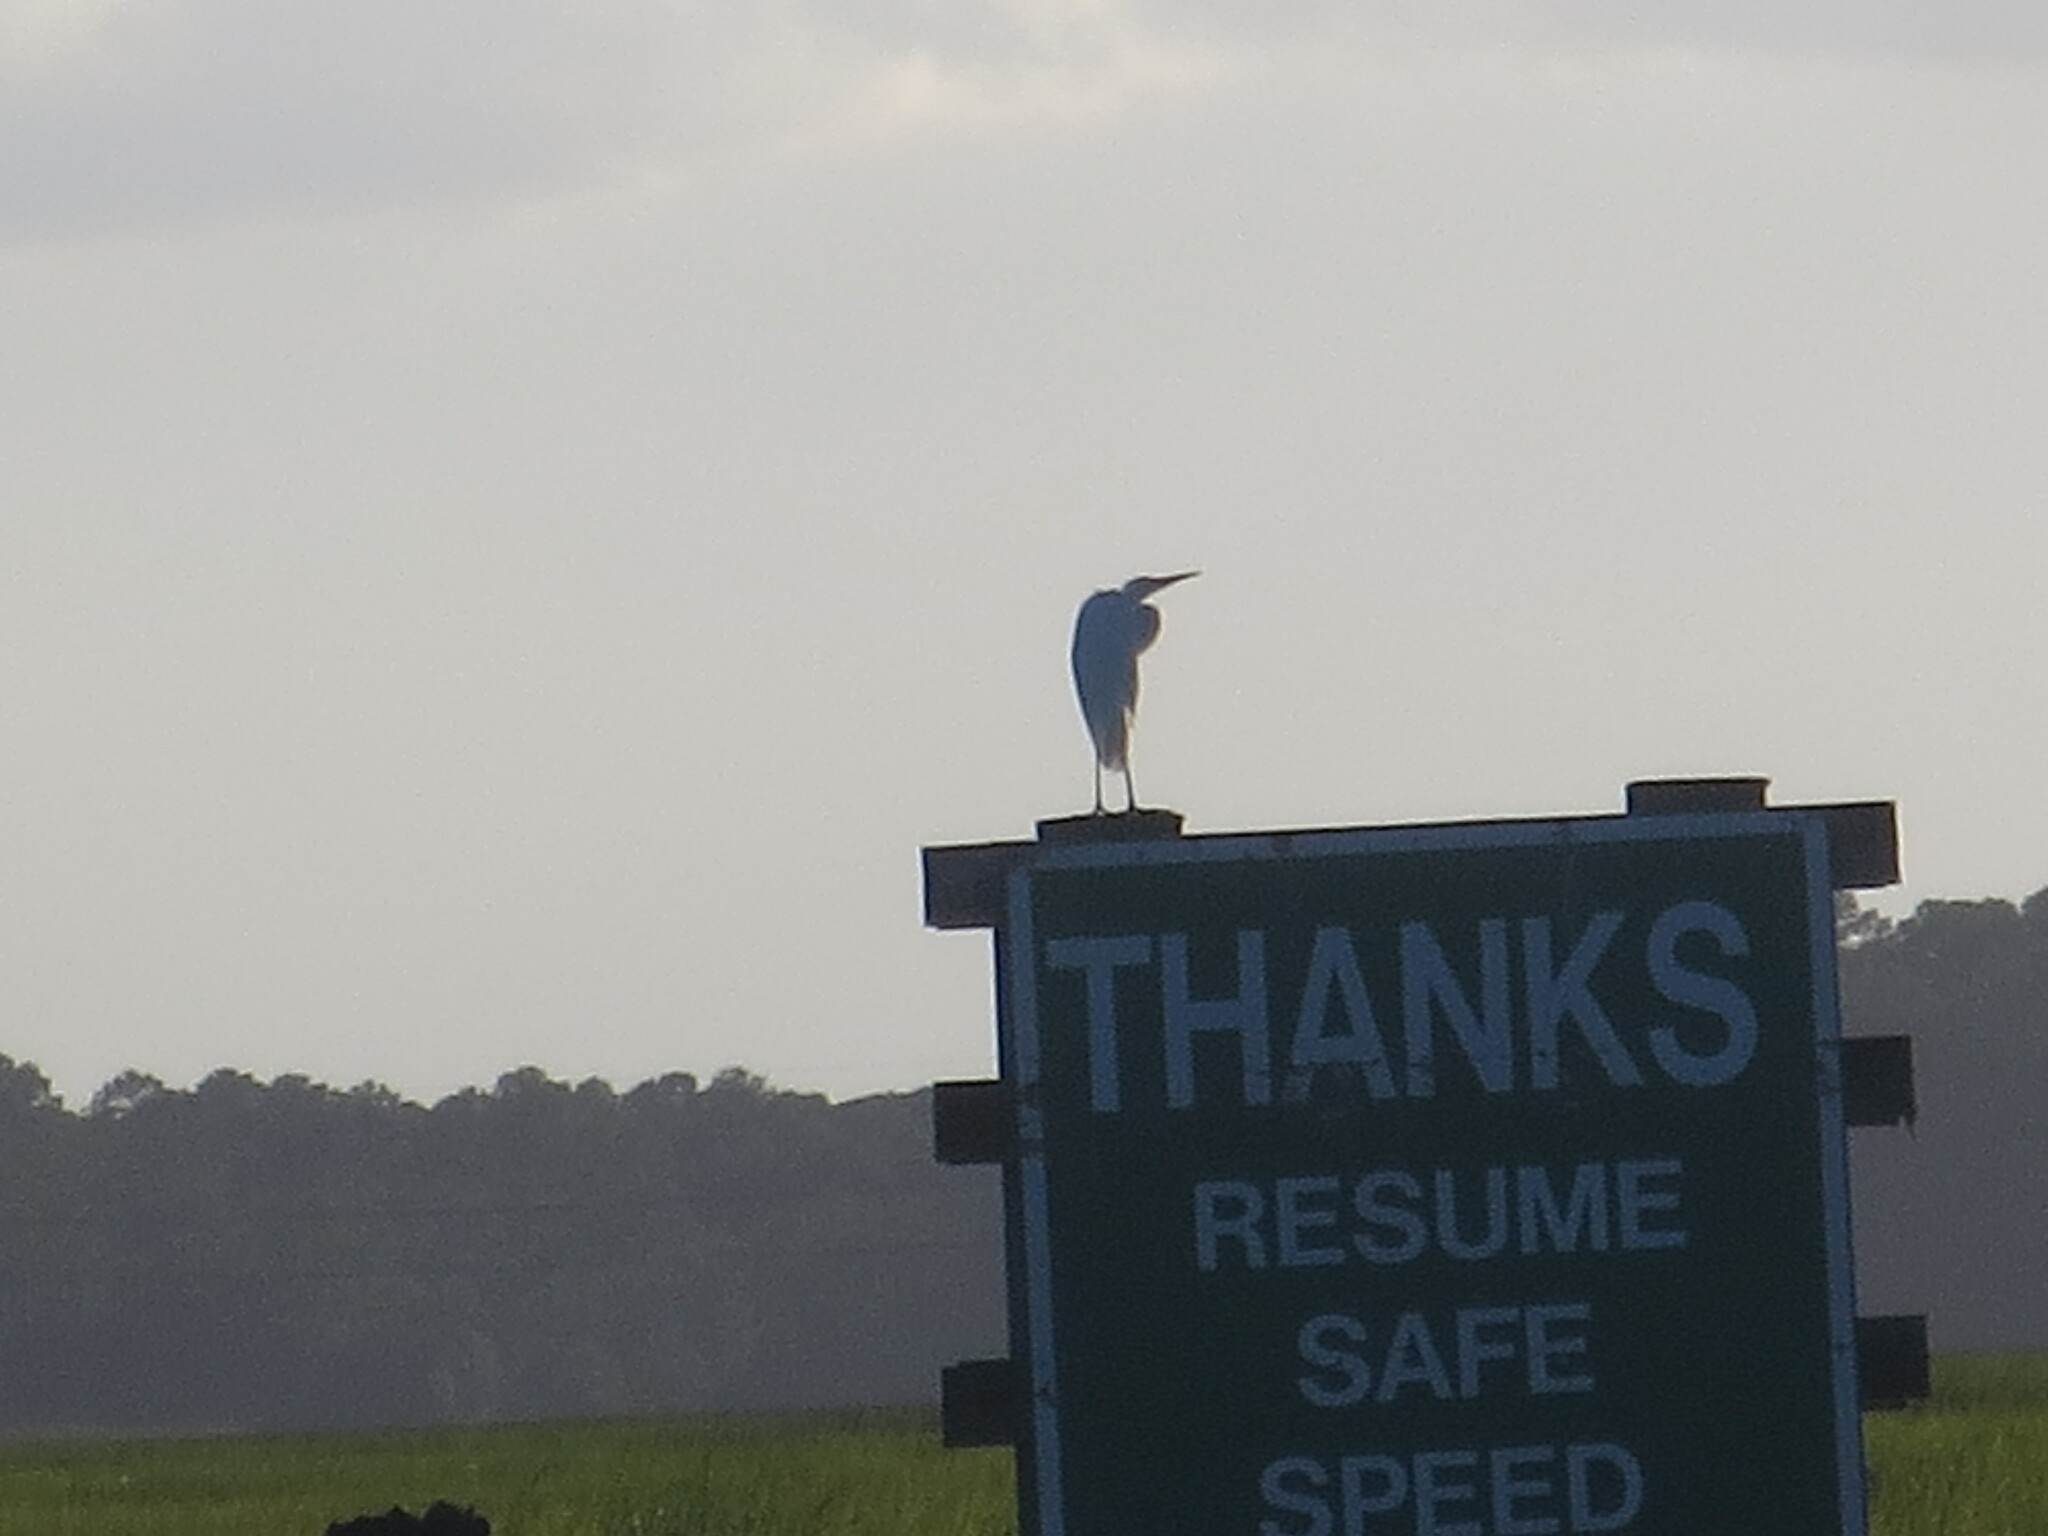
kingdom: Animalia
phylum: Chordata
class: Aves
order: Pelecaniformes
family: Ardeidae
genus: Ardea
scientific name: Ardea alba
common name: Great egret
